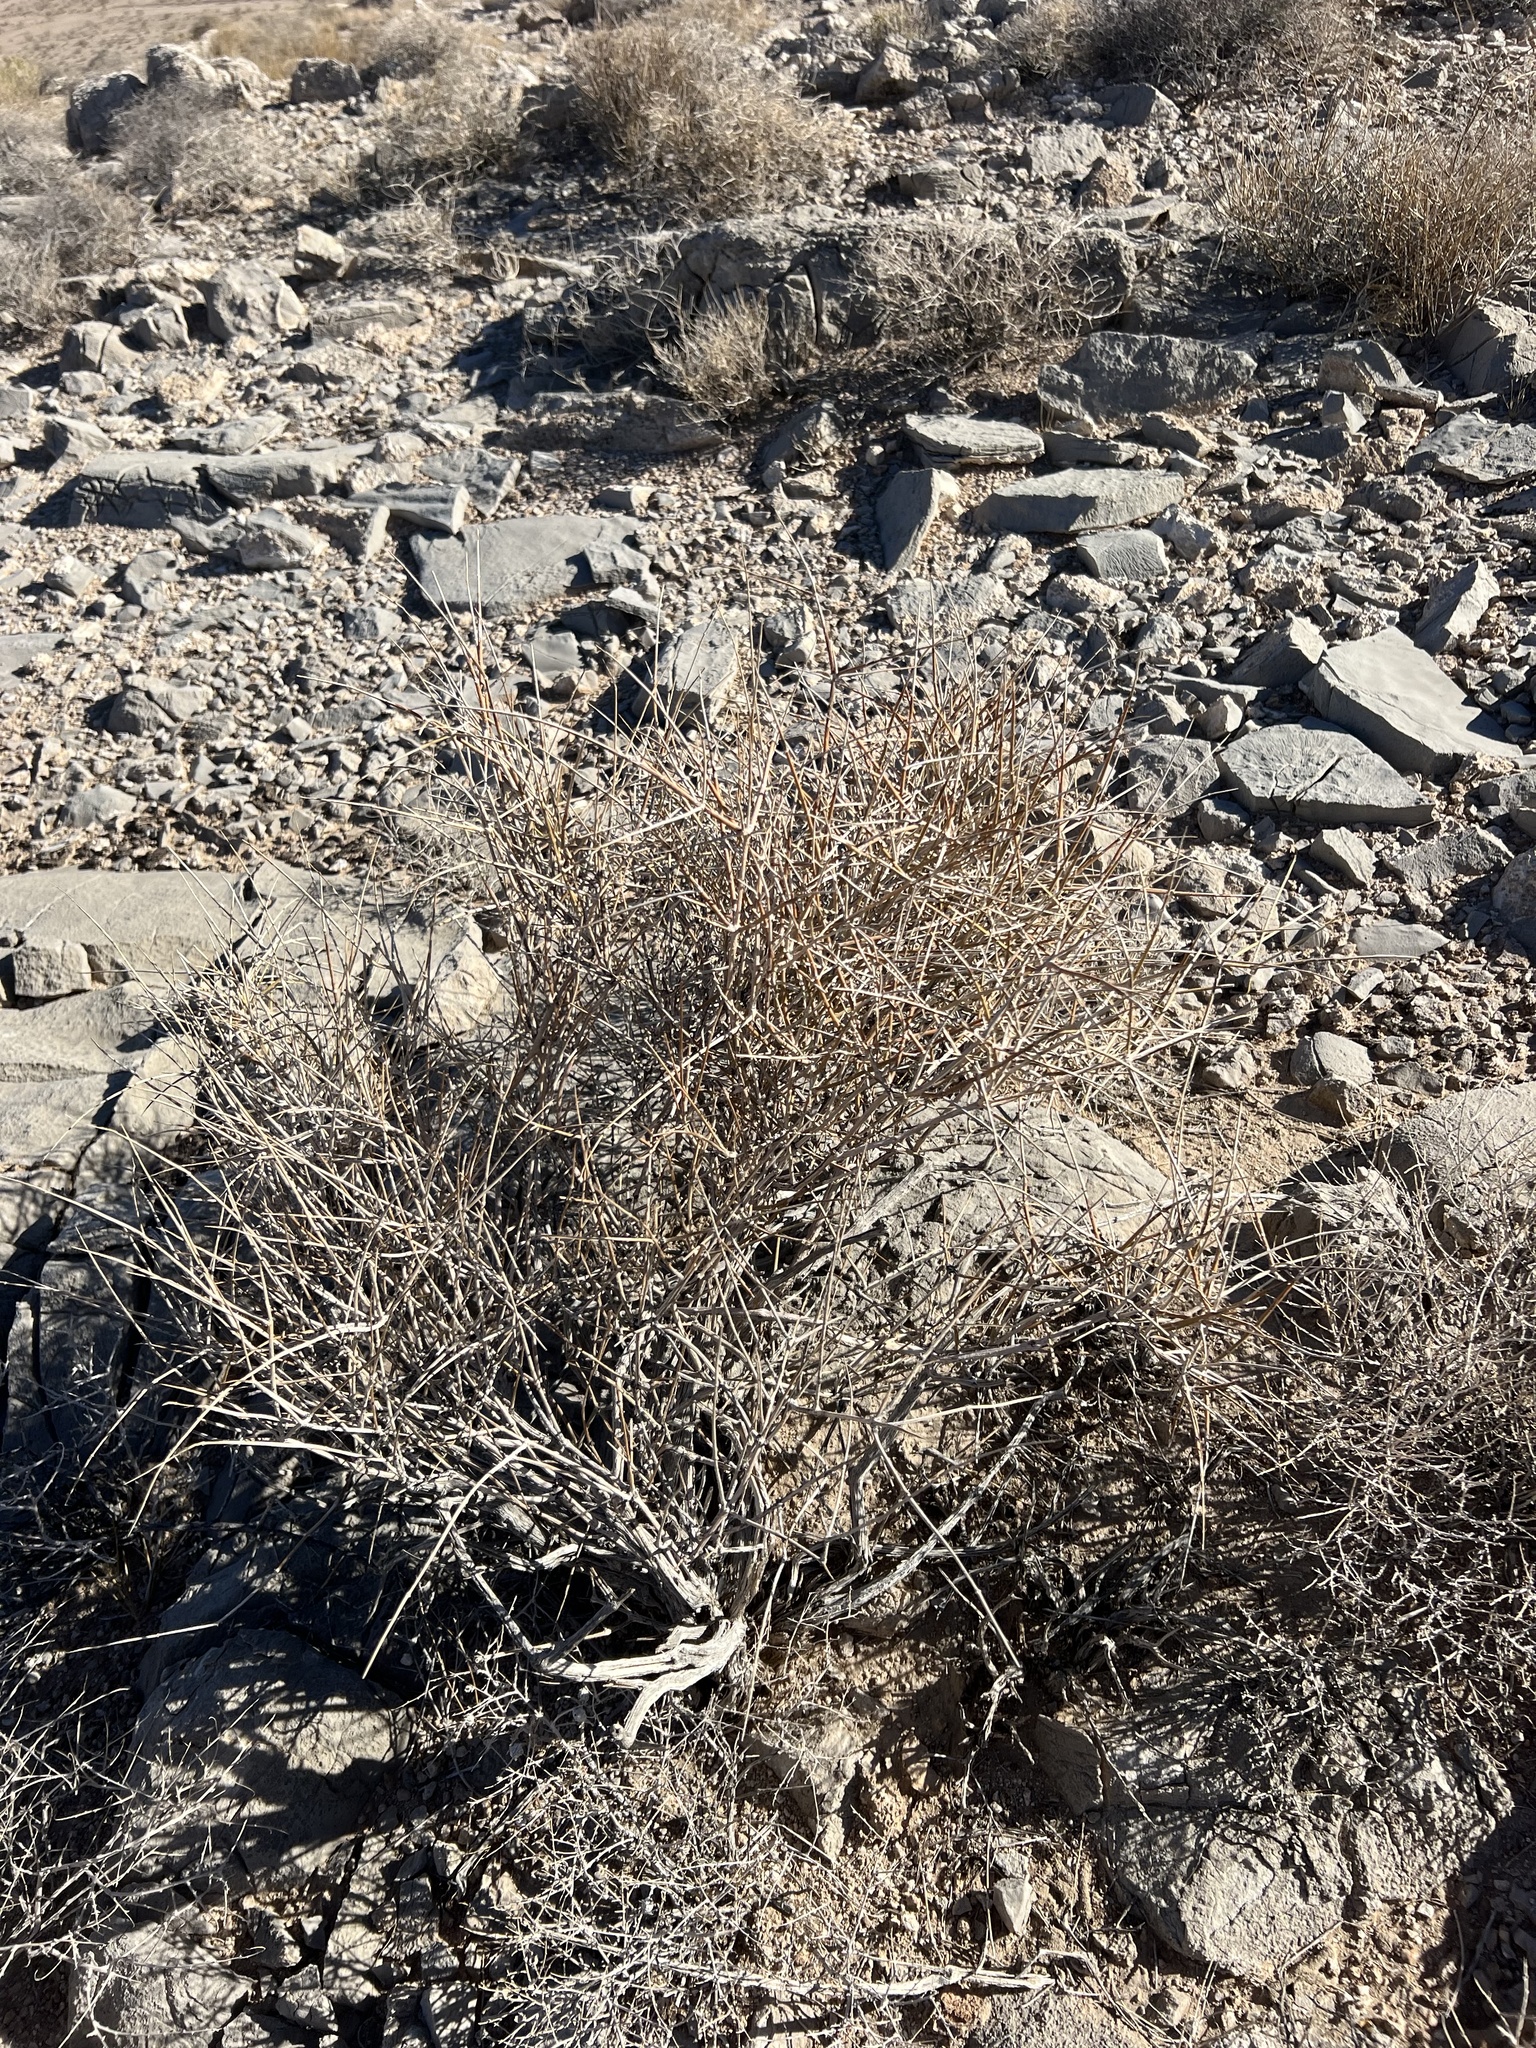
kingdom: Plantae
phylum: Tracheophyta
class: Gnetopsida
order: Ephedrales
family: Ephedraceae
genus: Ephedra
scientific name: Ephedra nevadensis
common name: Gray ephedra
